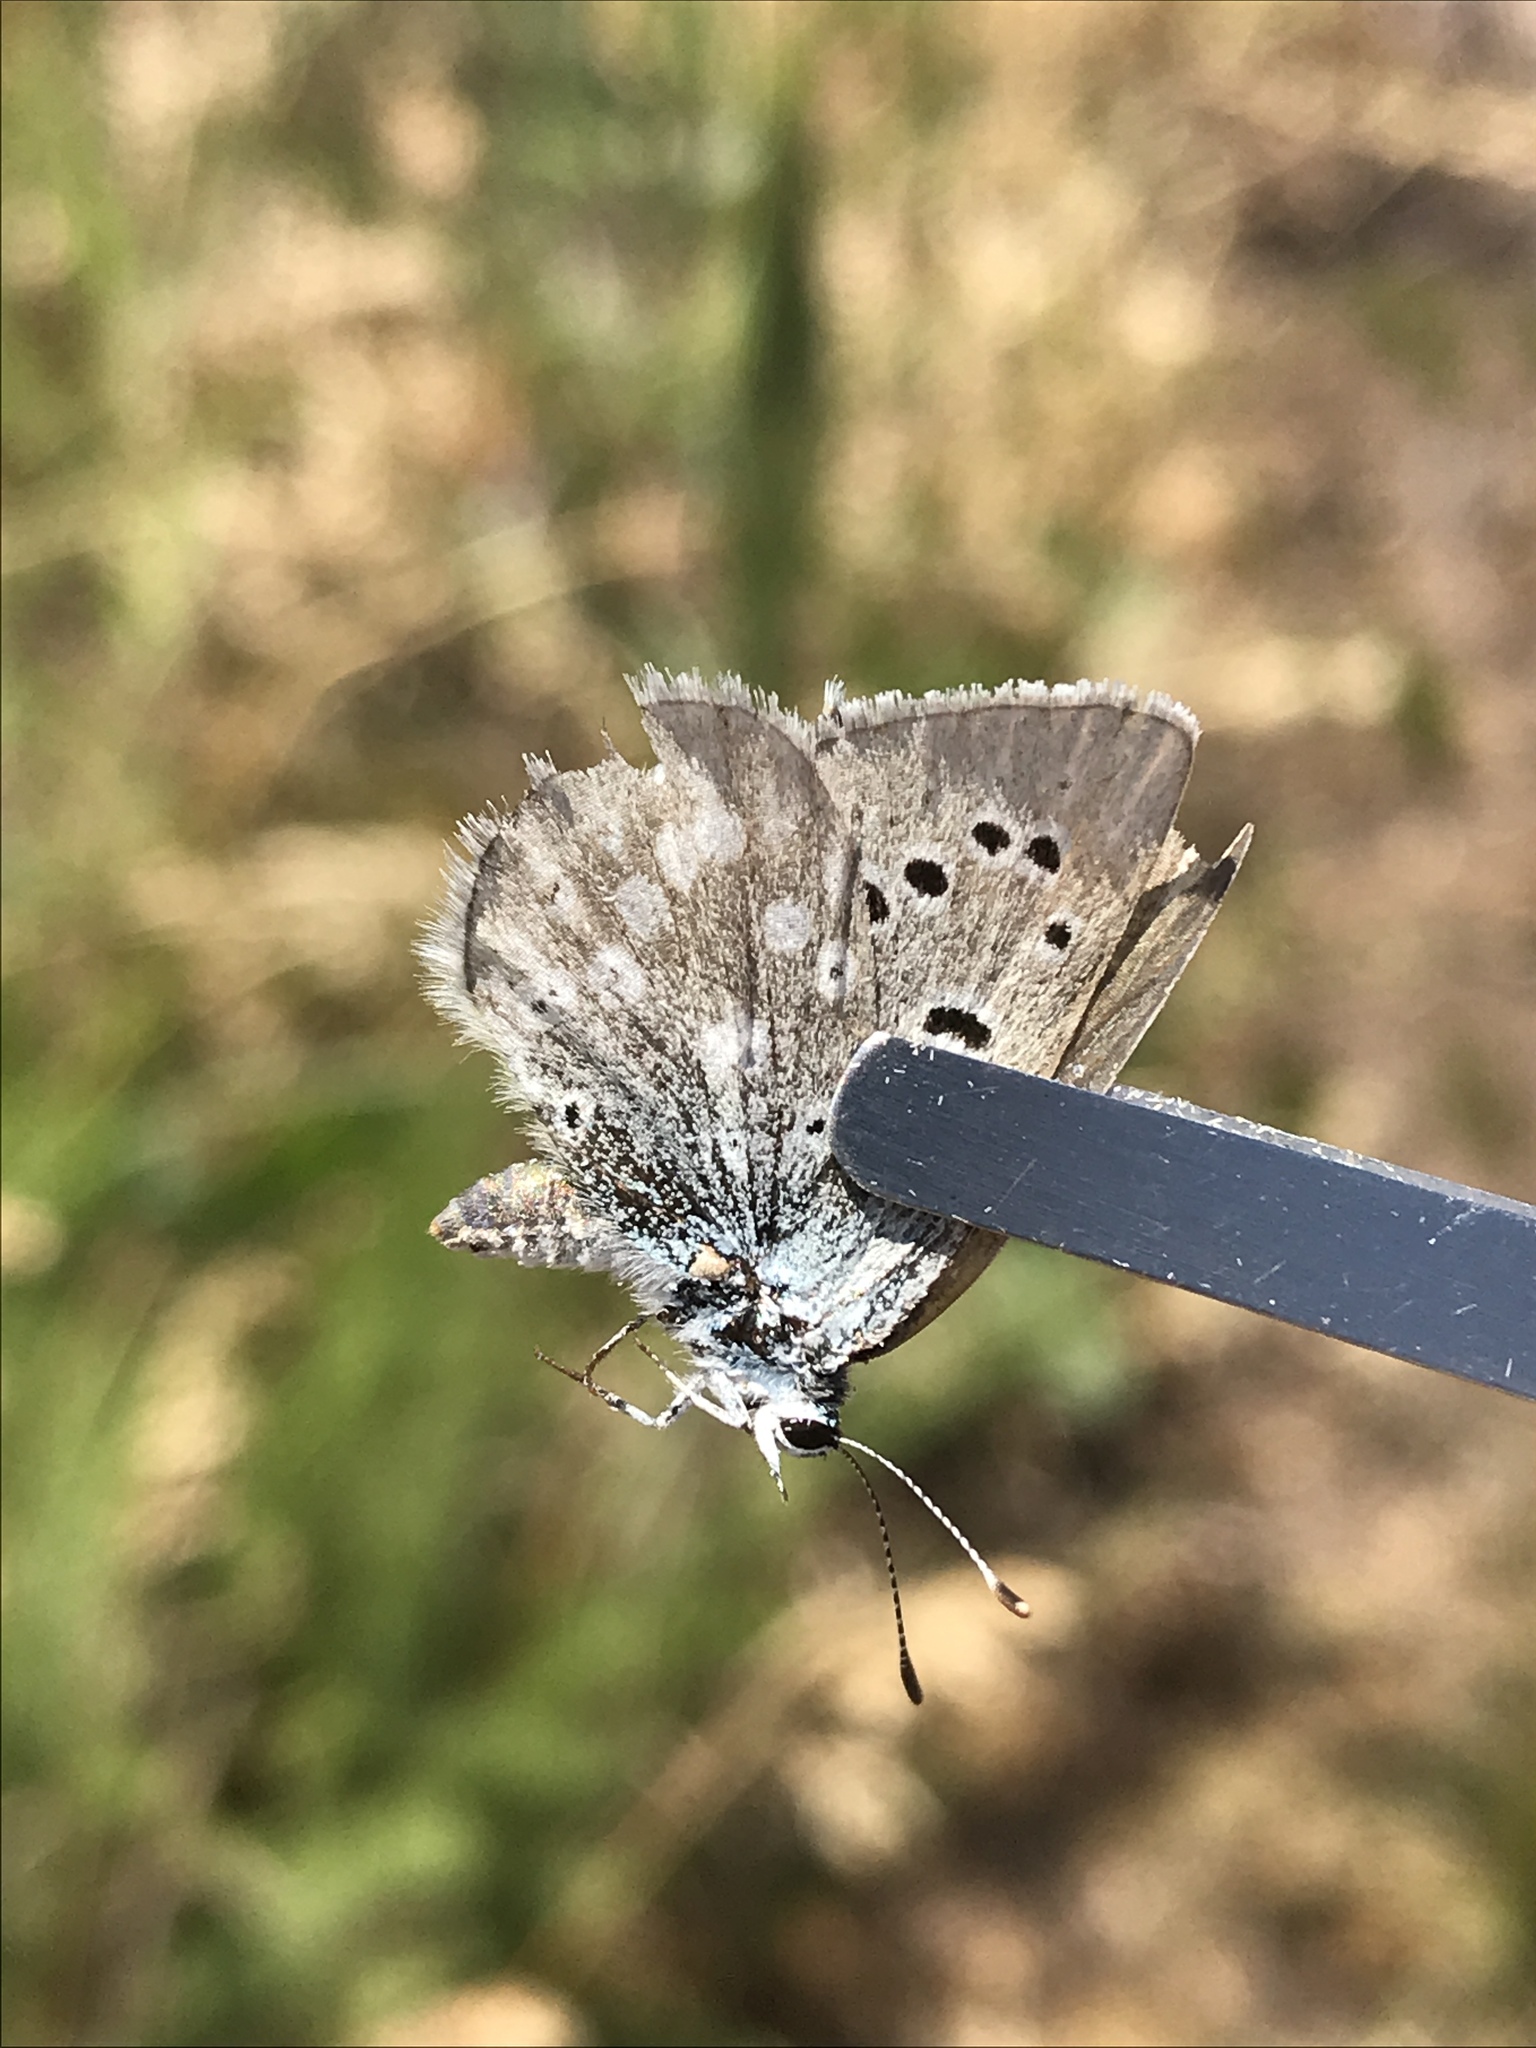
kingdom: Animalia
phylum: Arthropoda
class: Insecta
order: Lepidoptera
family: Lycaenidae
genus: Icaricia
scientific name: Icaricia icarioides
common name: Boisduval's blue
